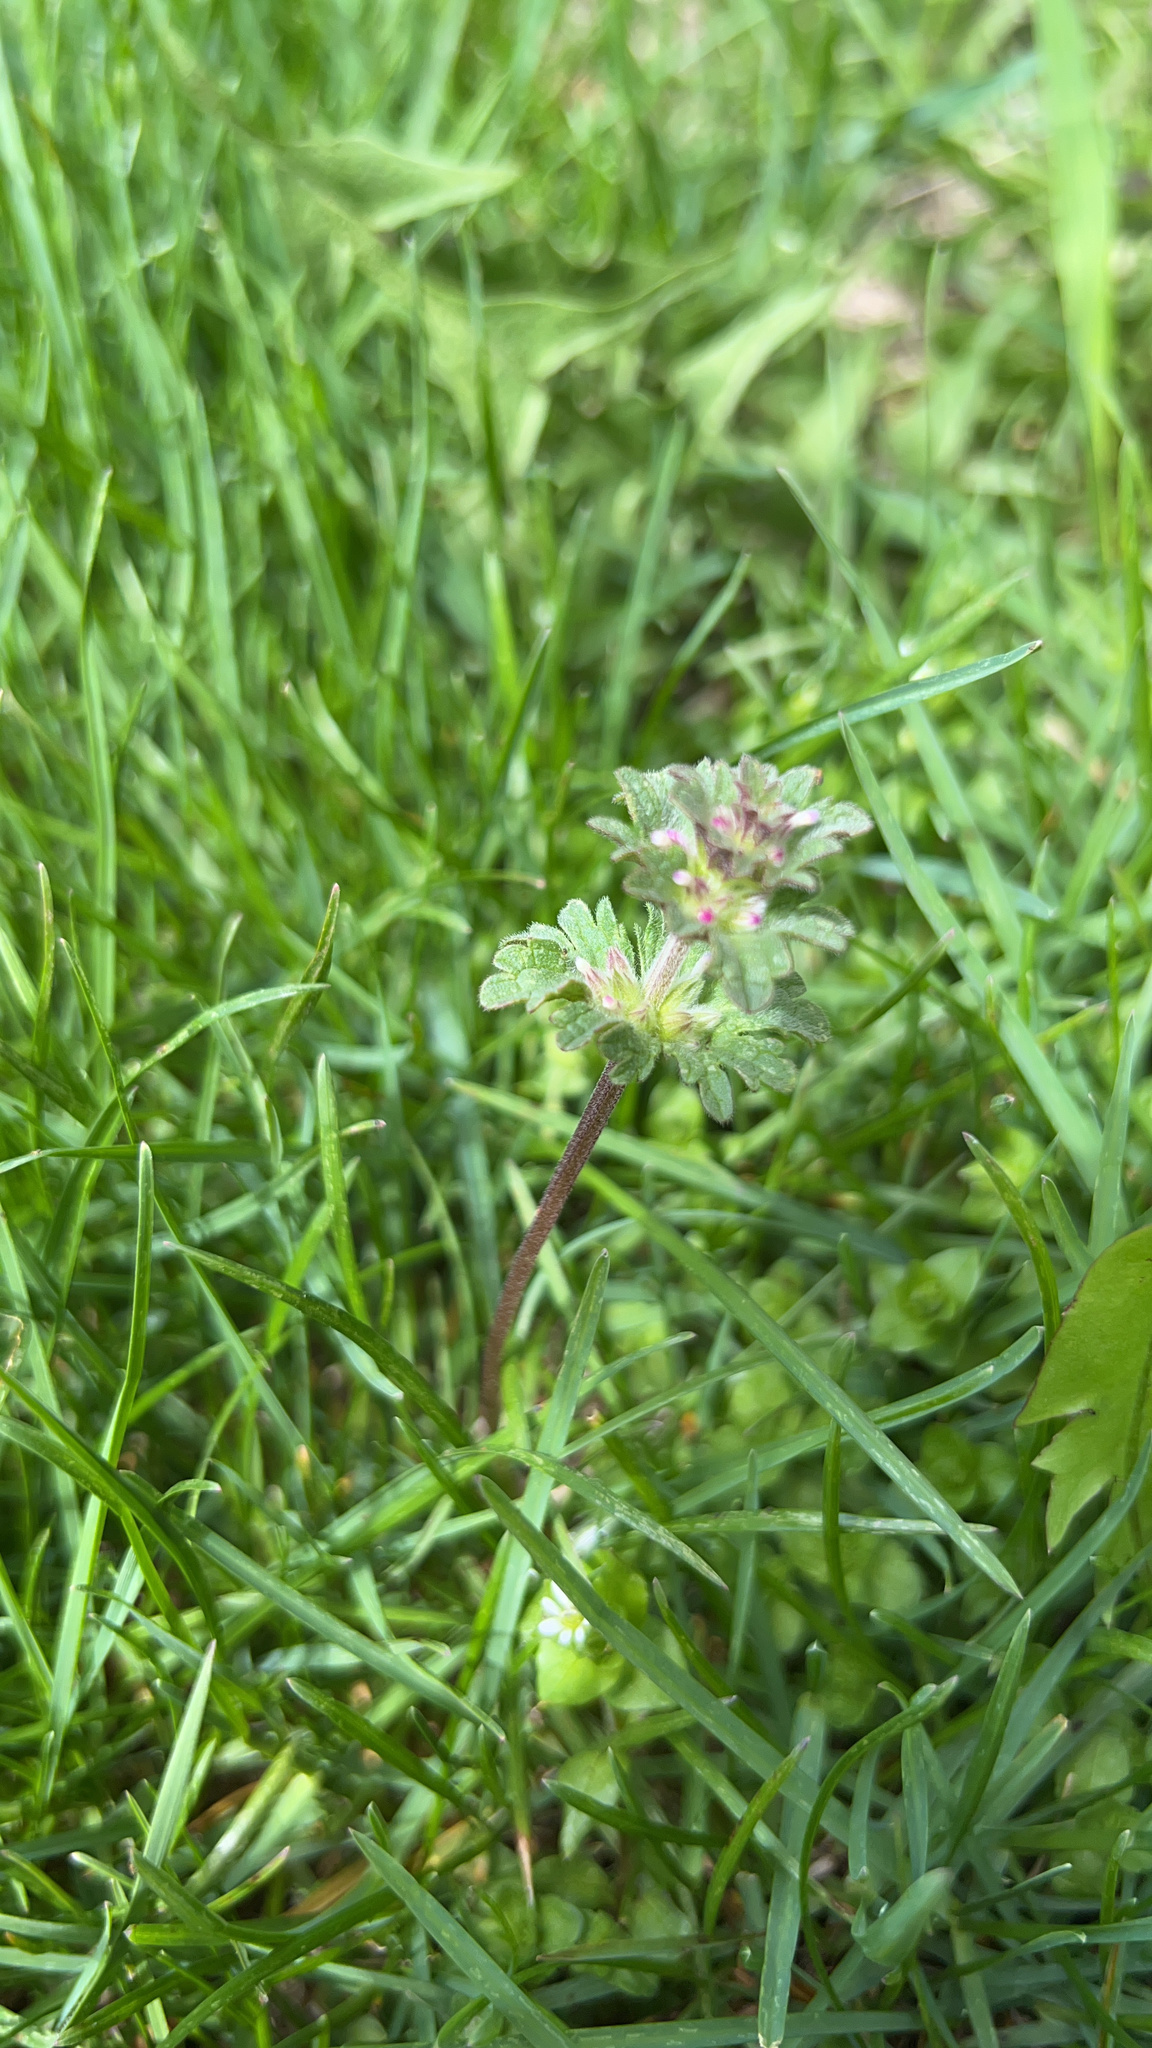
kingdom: Plantae
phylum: Tracheophyta
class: Magnoliopsida
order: Lamiales
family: Lamiaceae
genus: Lamium
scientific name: Lamium amplexicaule
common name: Henbit dead-nettle
